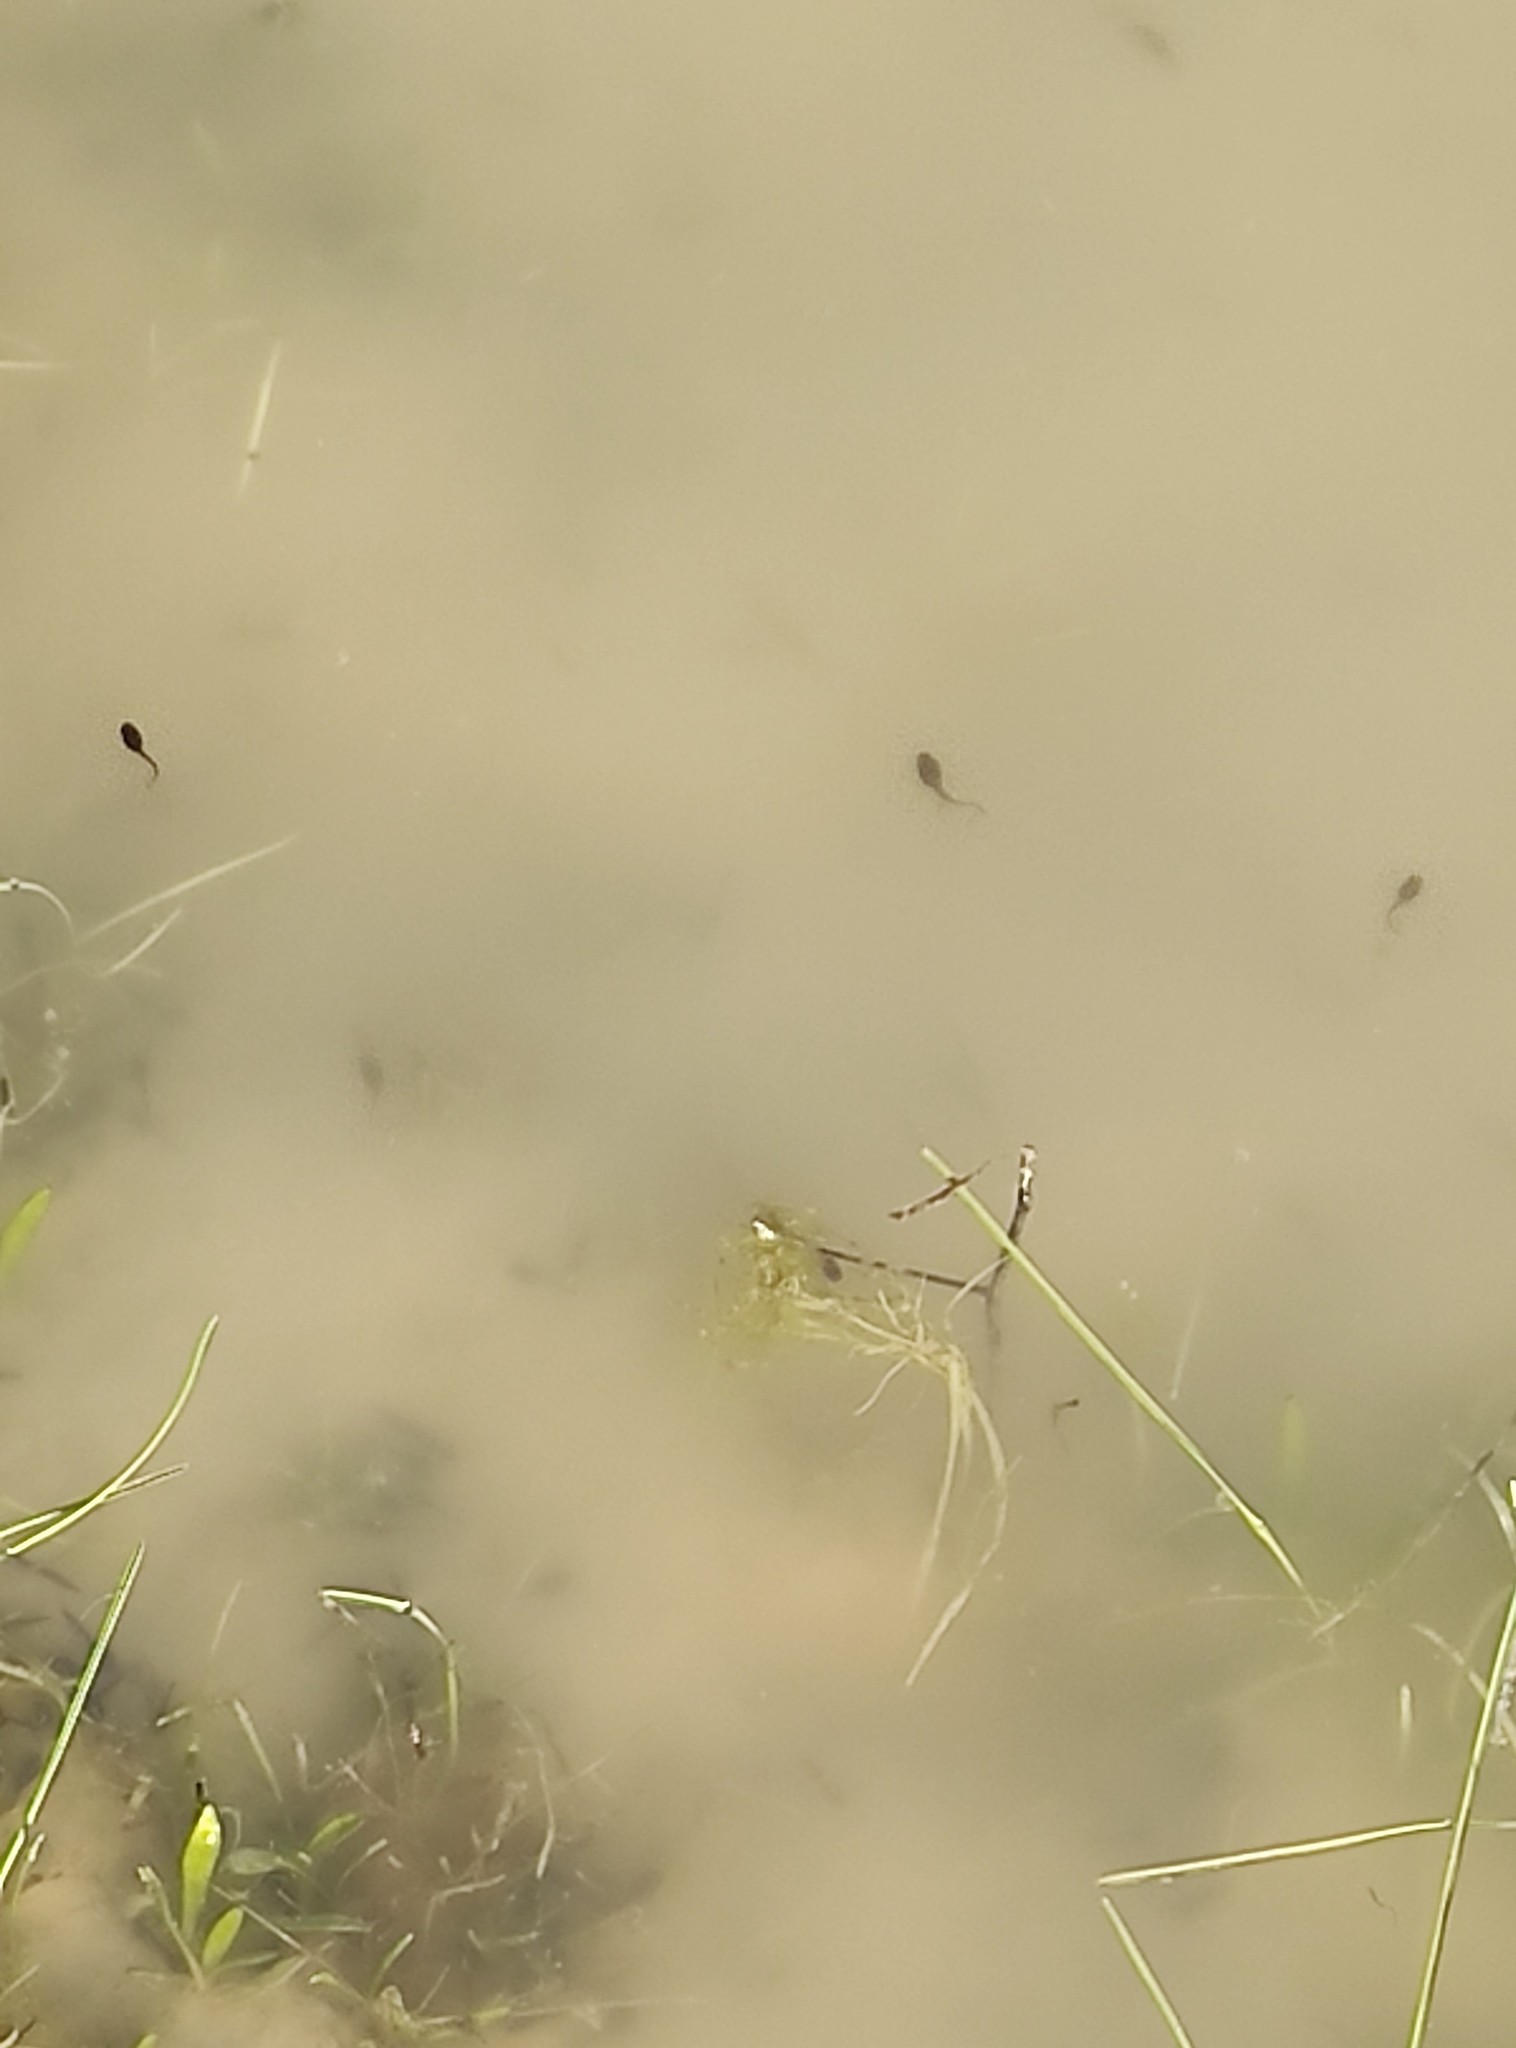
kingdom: Animalia
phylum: Chordata
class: Amphibia
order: Anura
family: Bufonidae
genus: Epidalea
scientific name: Epidalea calamita
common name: Natterjack toad
